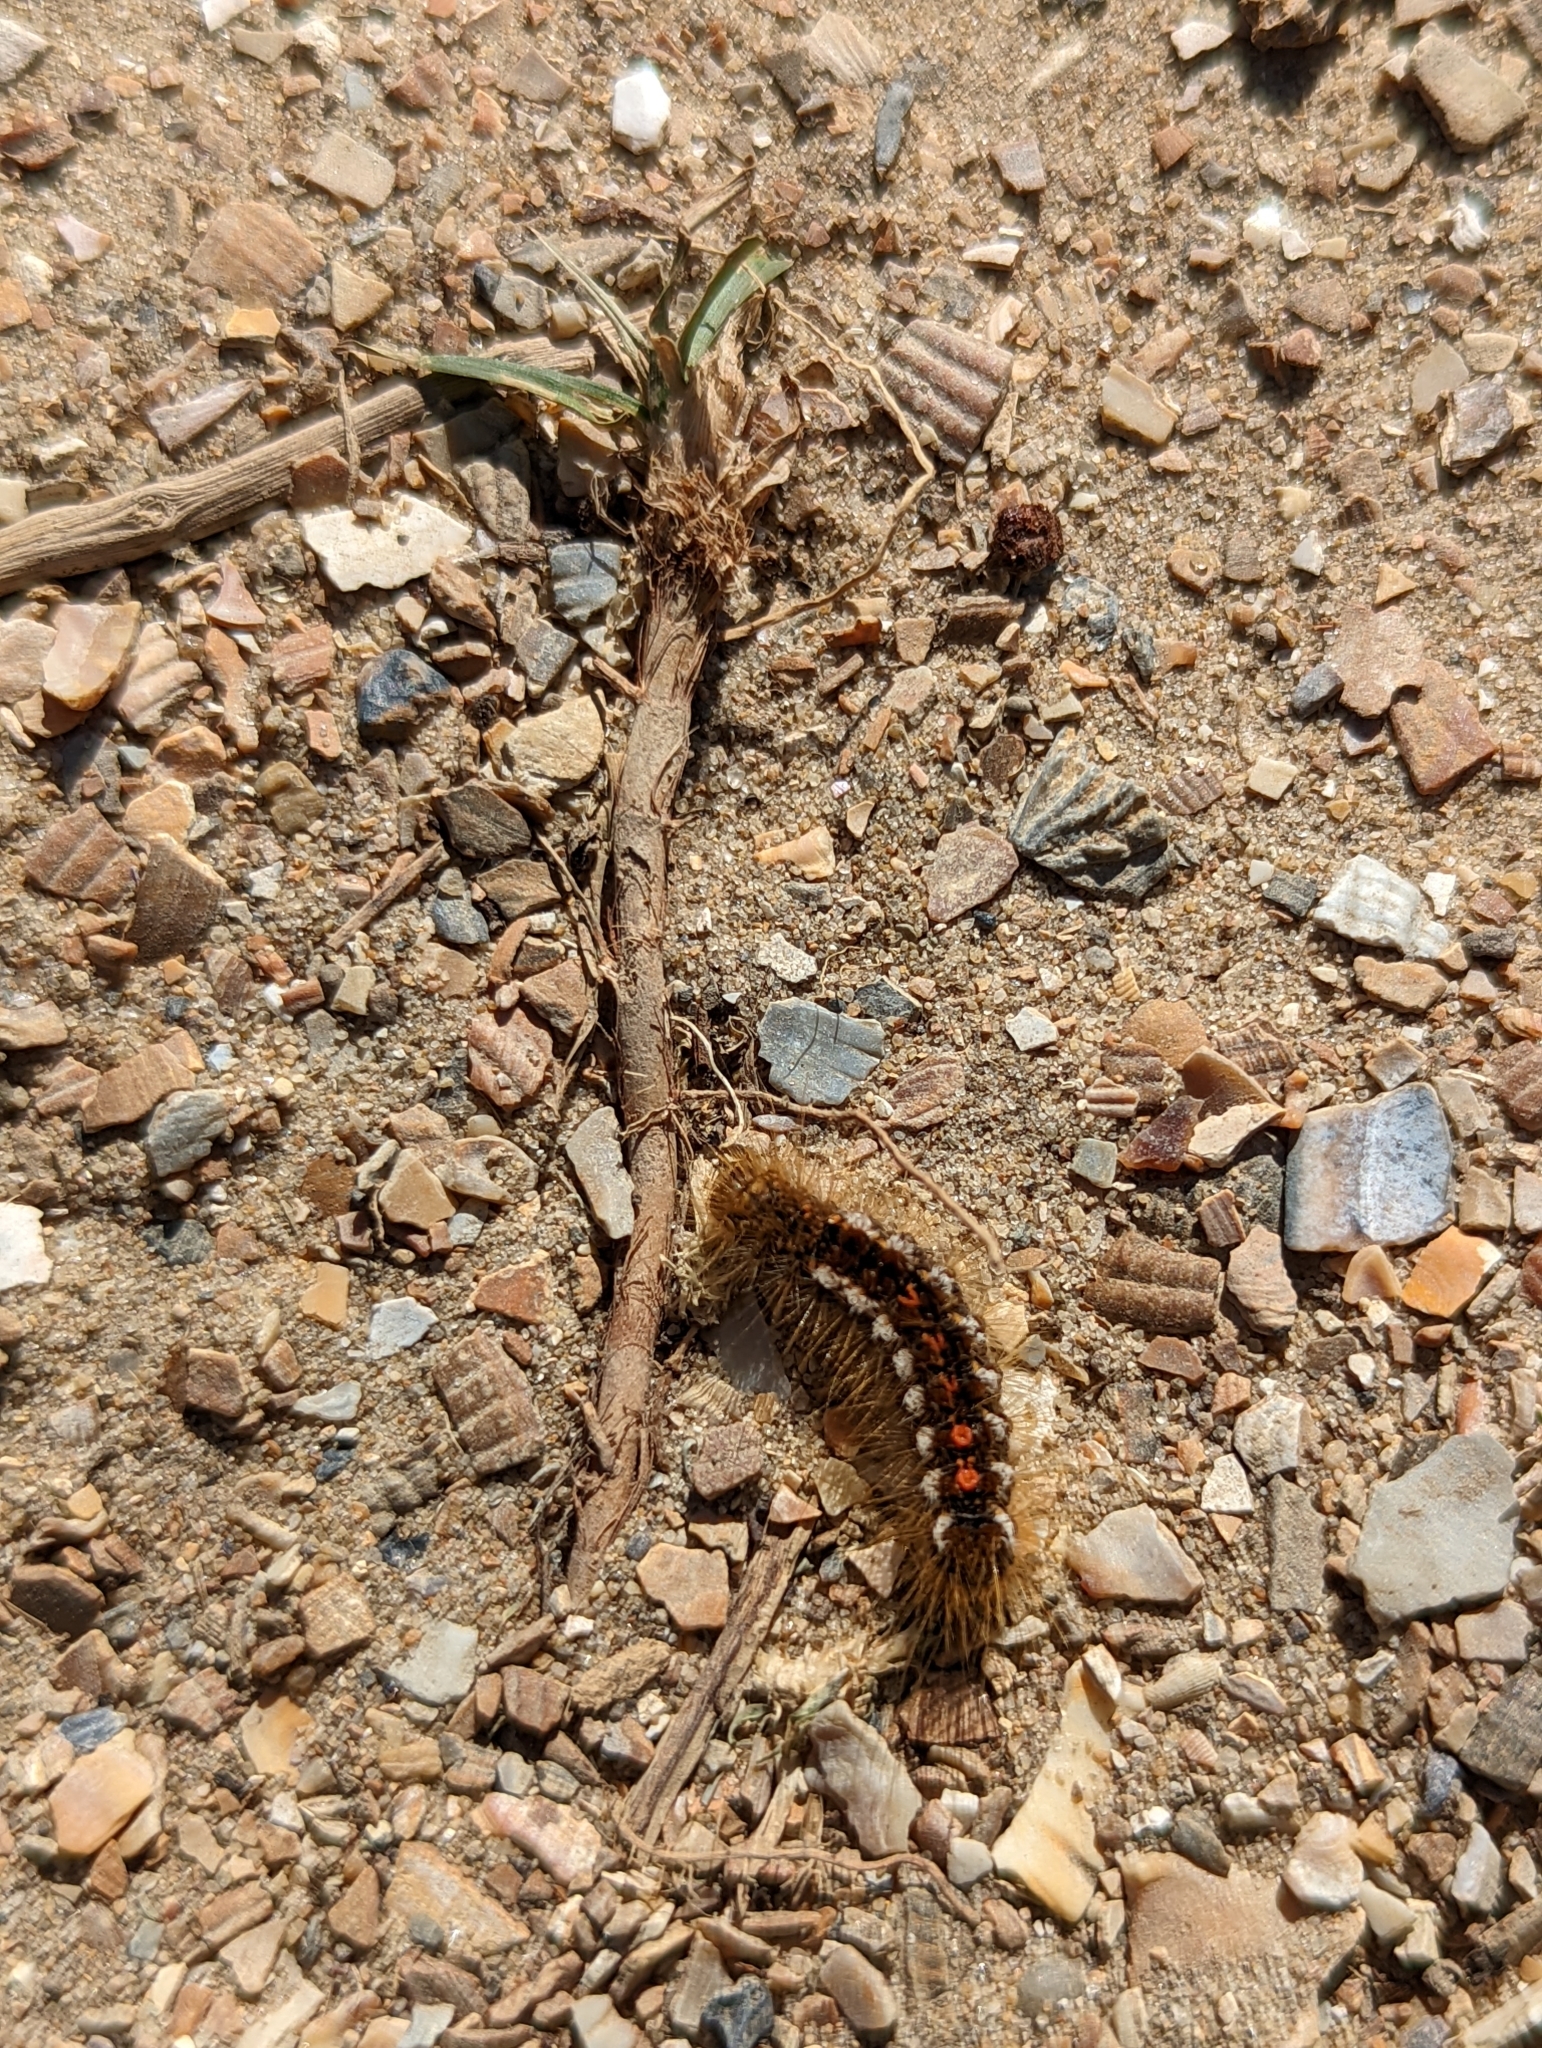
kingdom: Animalia
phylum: Arthropoda
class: Insecta
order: Lepidoptera
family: Erebidae
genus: Euproctis
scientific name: Euproctis chrysorrhoea
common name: Brown-tail
